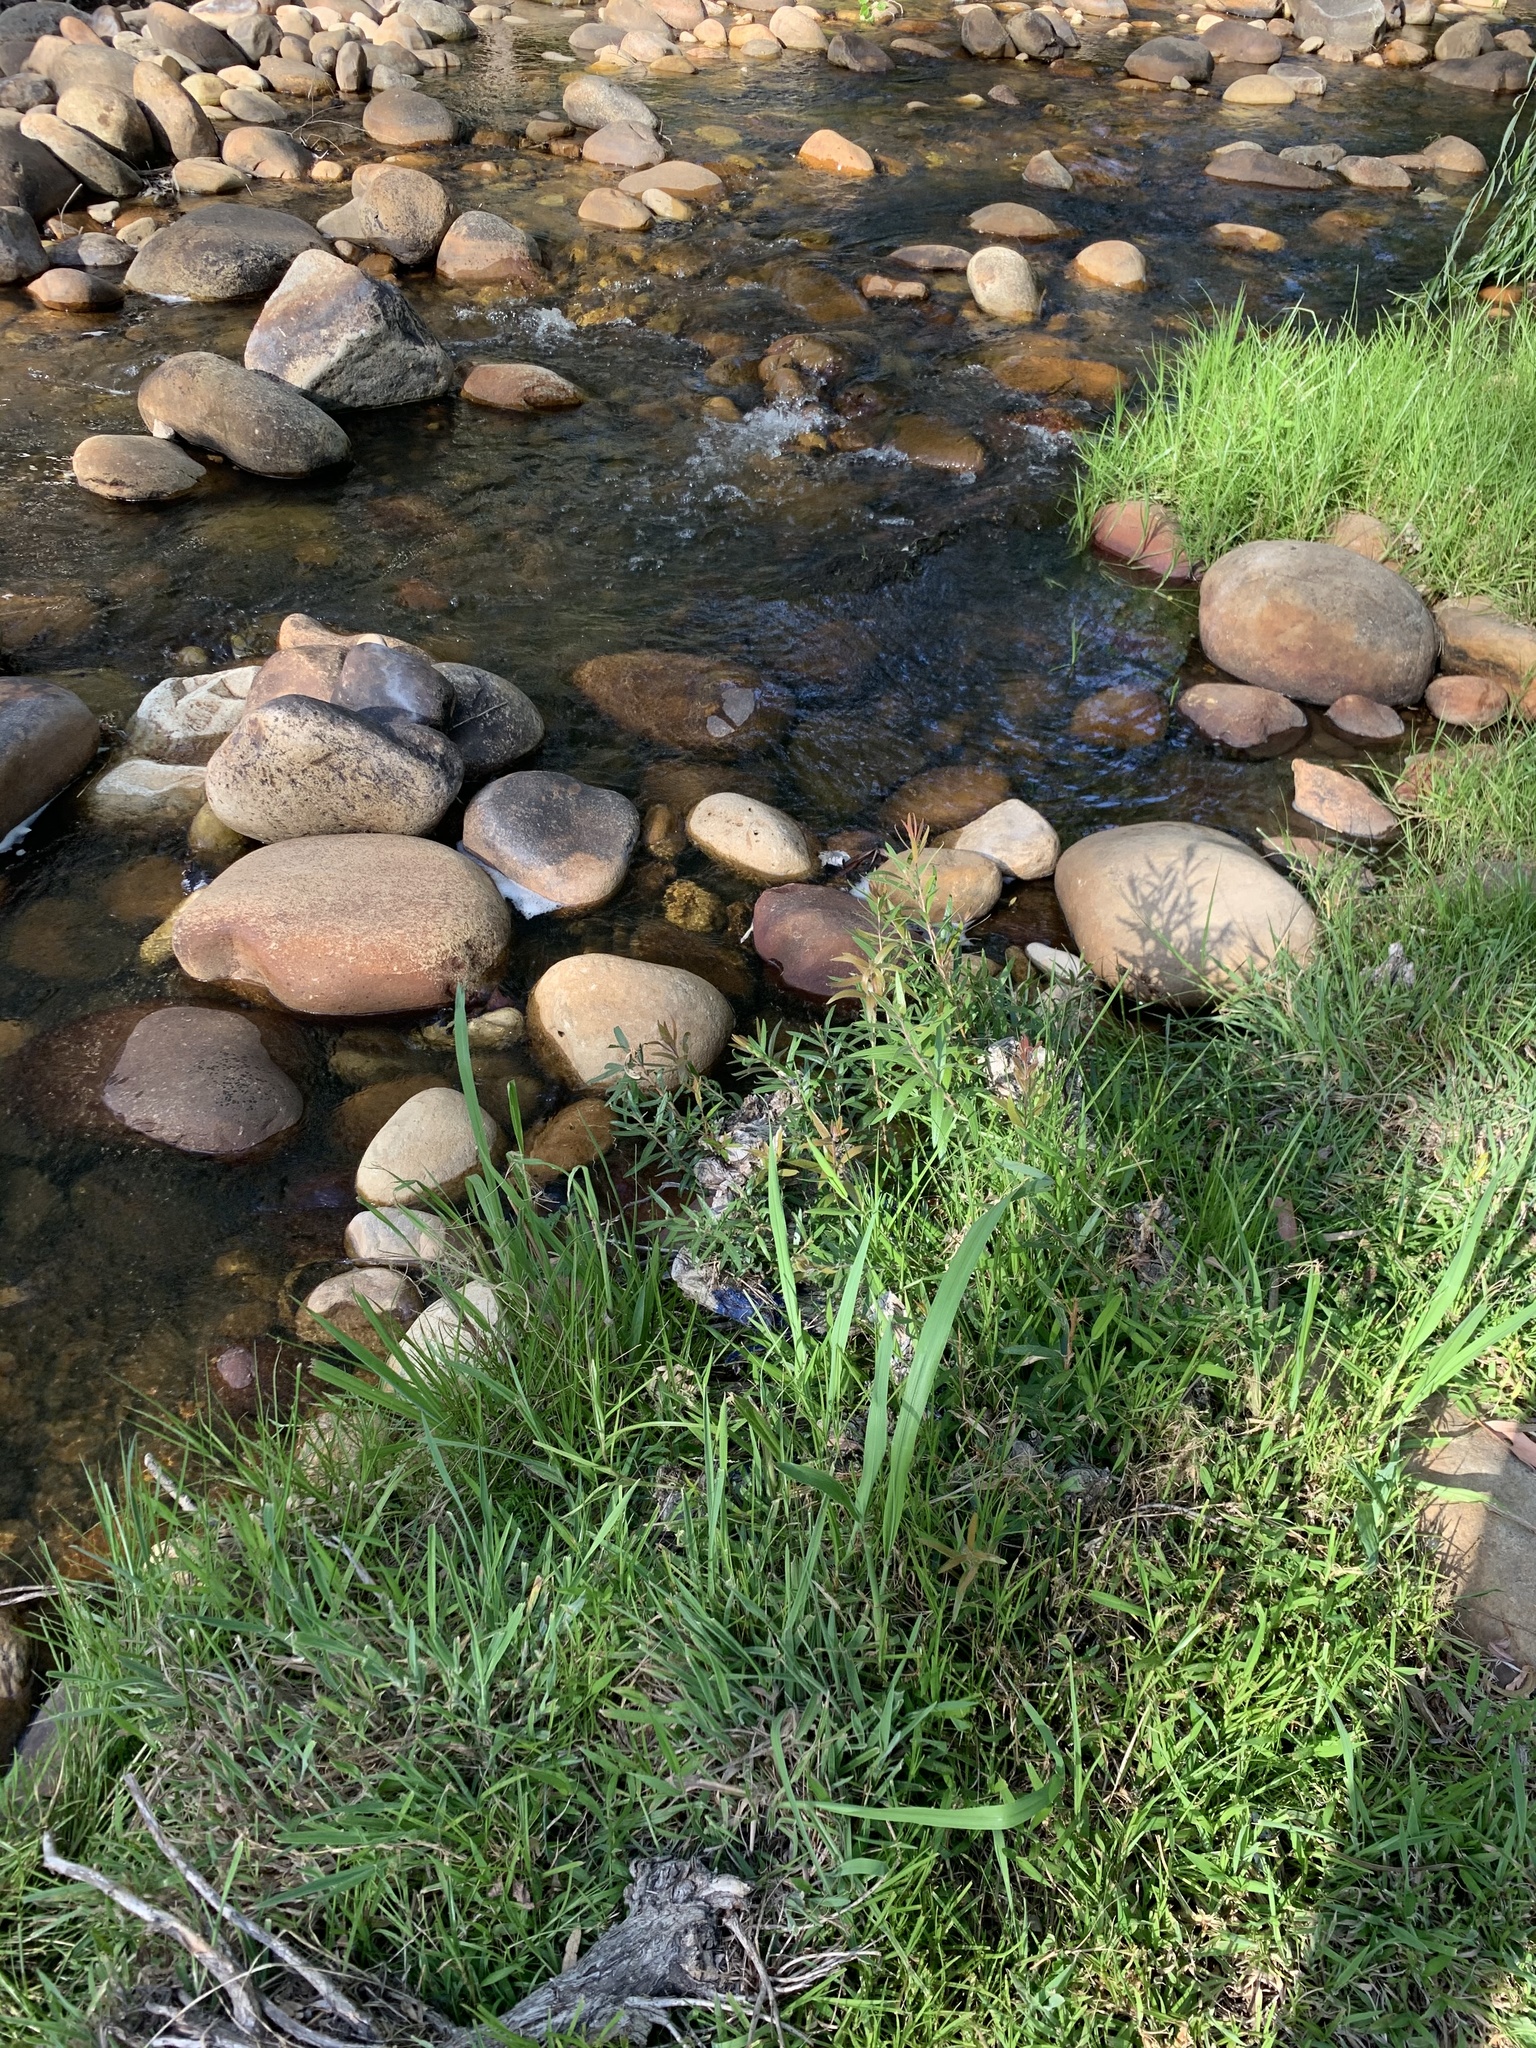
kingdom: Plantae
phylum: Tracheophyta
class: Magnoliopsida
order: Myrtales
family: Myrtaceae
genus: Callistemon
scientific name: Callistemon viminalis
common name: Drooping bottlebrush
